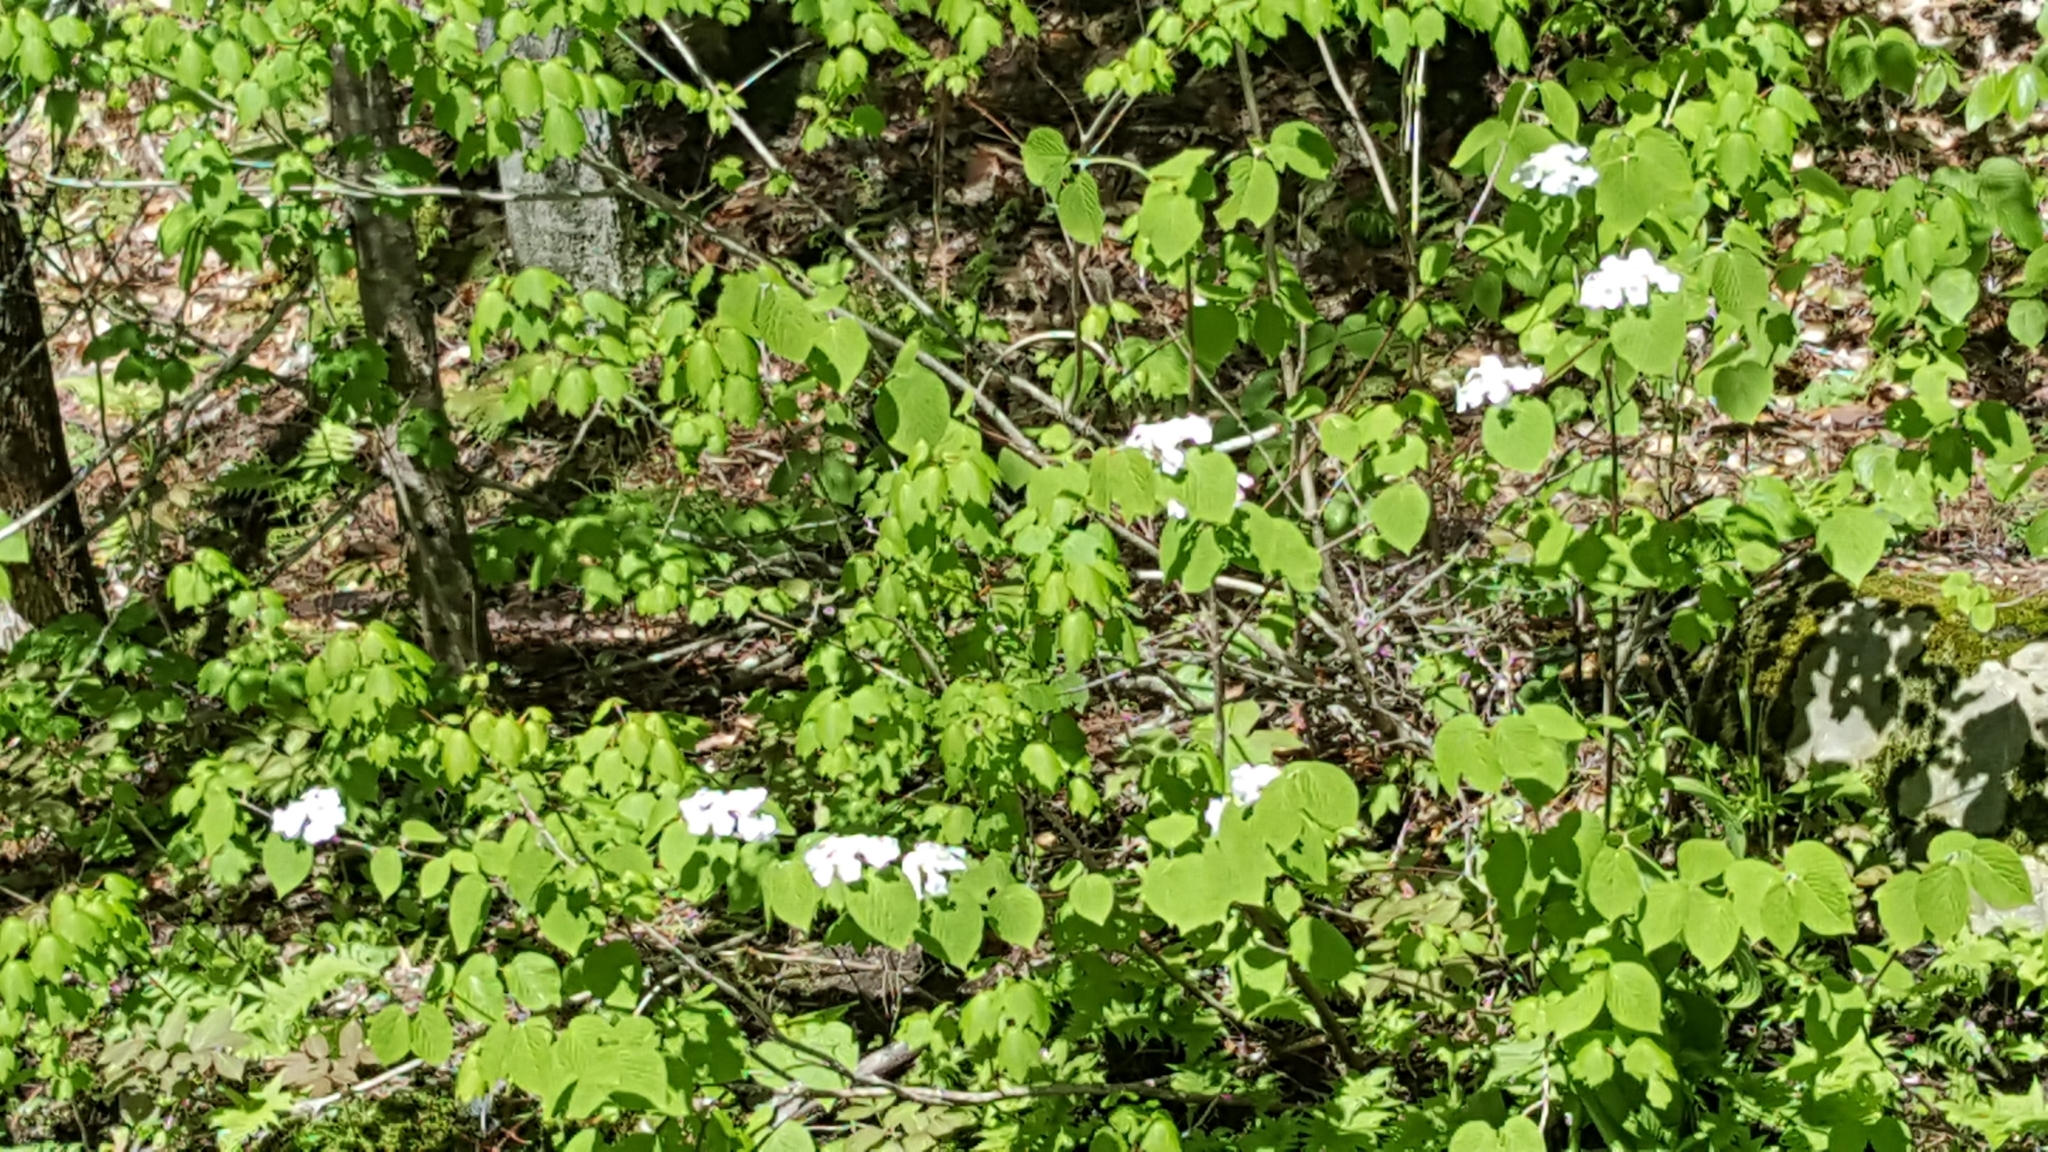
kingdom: Plantae
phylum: Tracheophyta
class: Magnoliopsida
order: Dipsacales
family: Viburnaceae
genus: Viburnum
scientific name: Viburnum lantanoides
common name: Hobblebush
